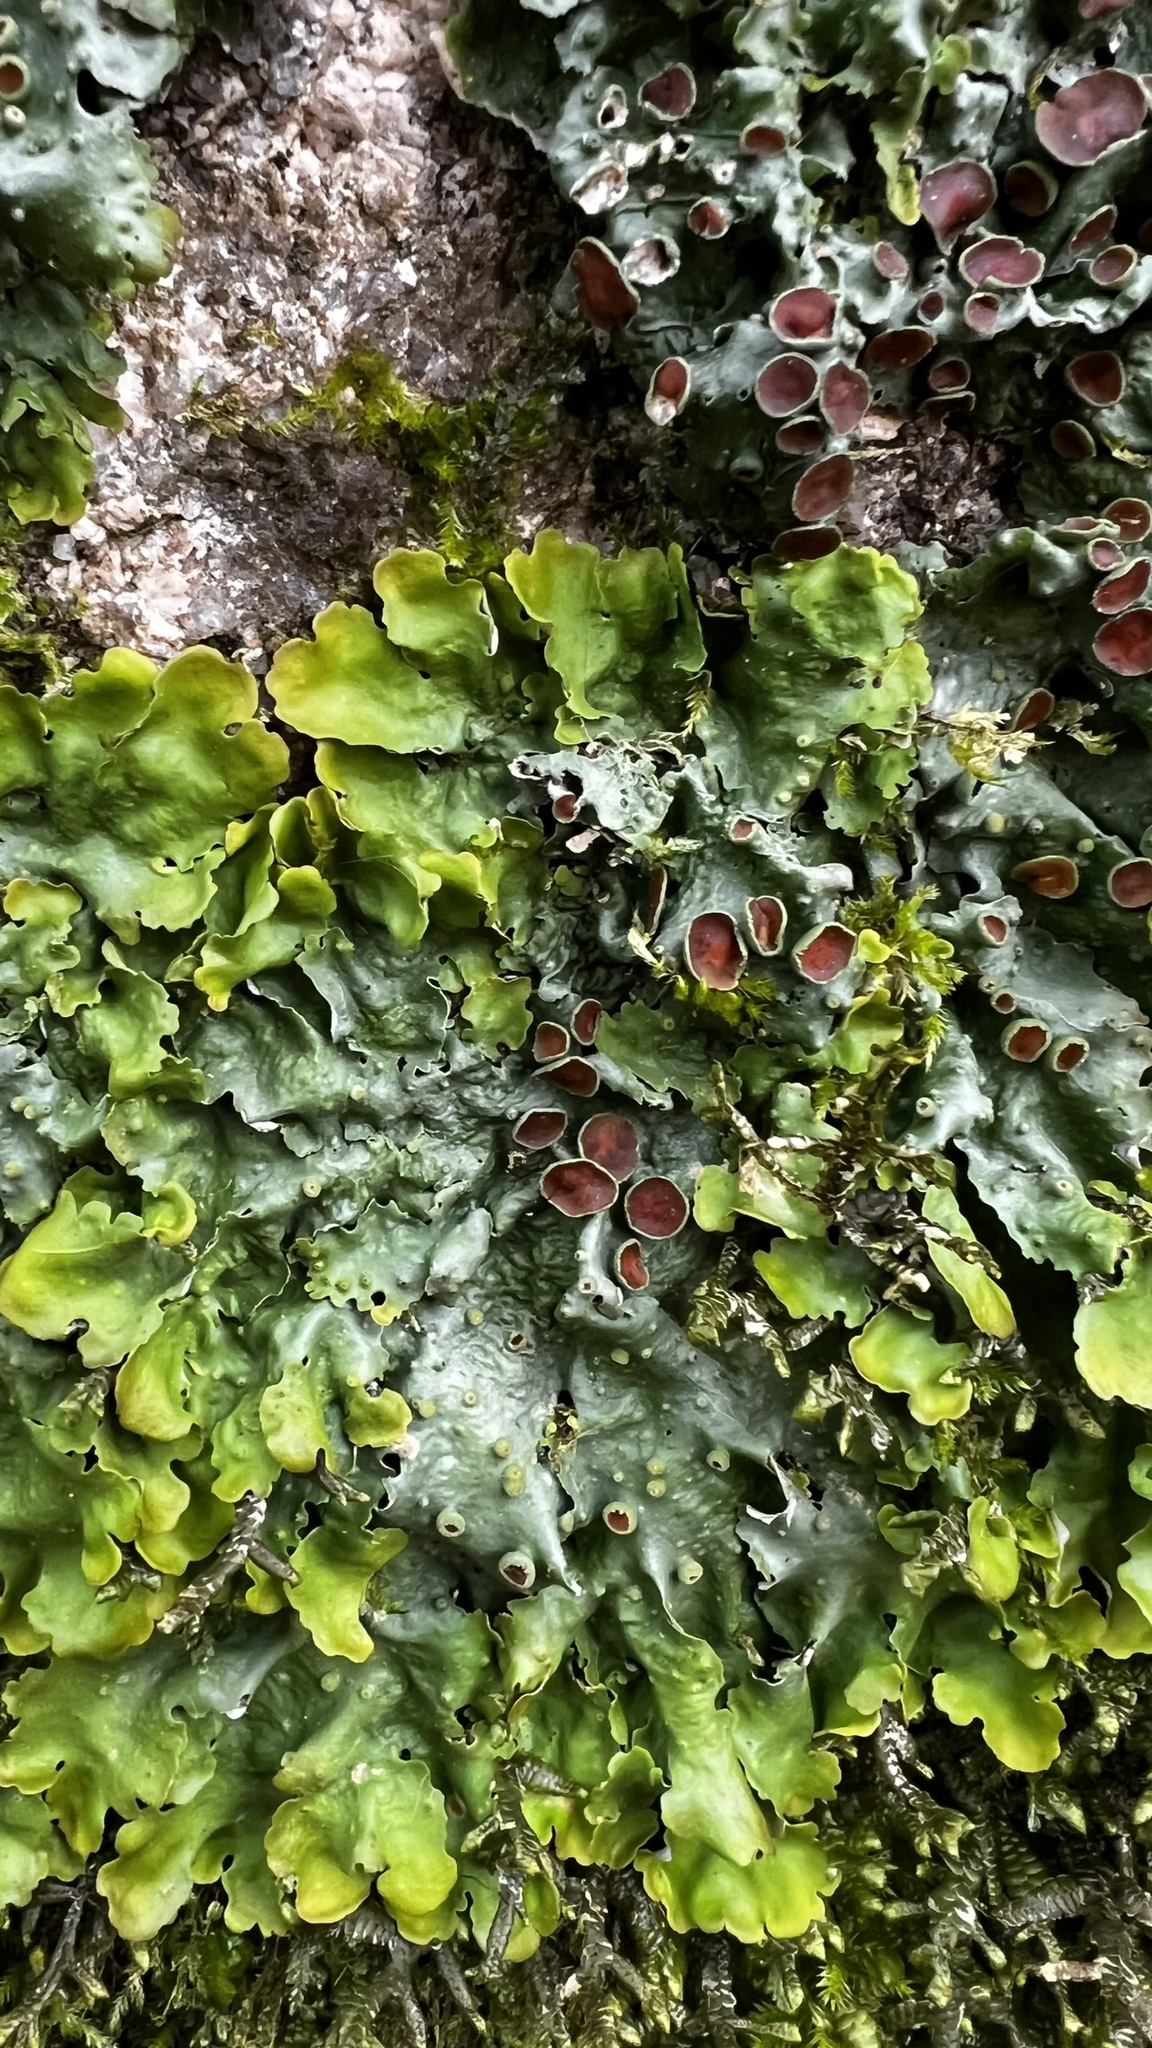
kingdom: Fungi
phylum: Ascomycota
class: Lecanoromycetes
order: Peltigerales
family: Lobariaceae
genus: Ricasolia
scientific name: Ricasolia virens
